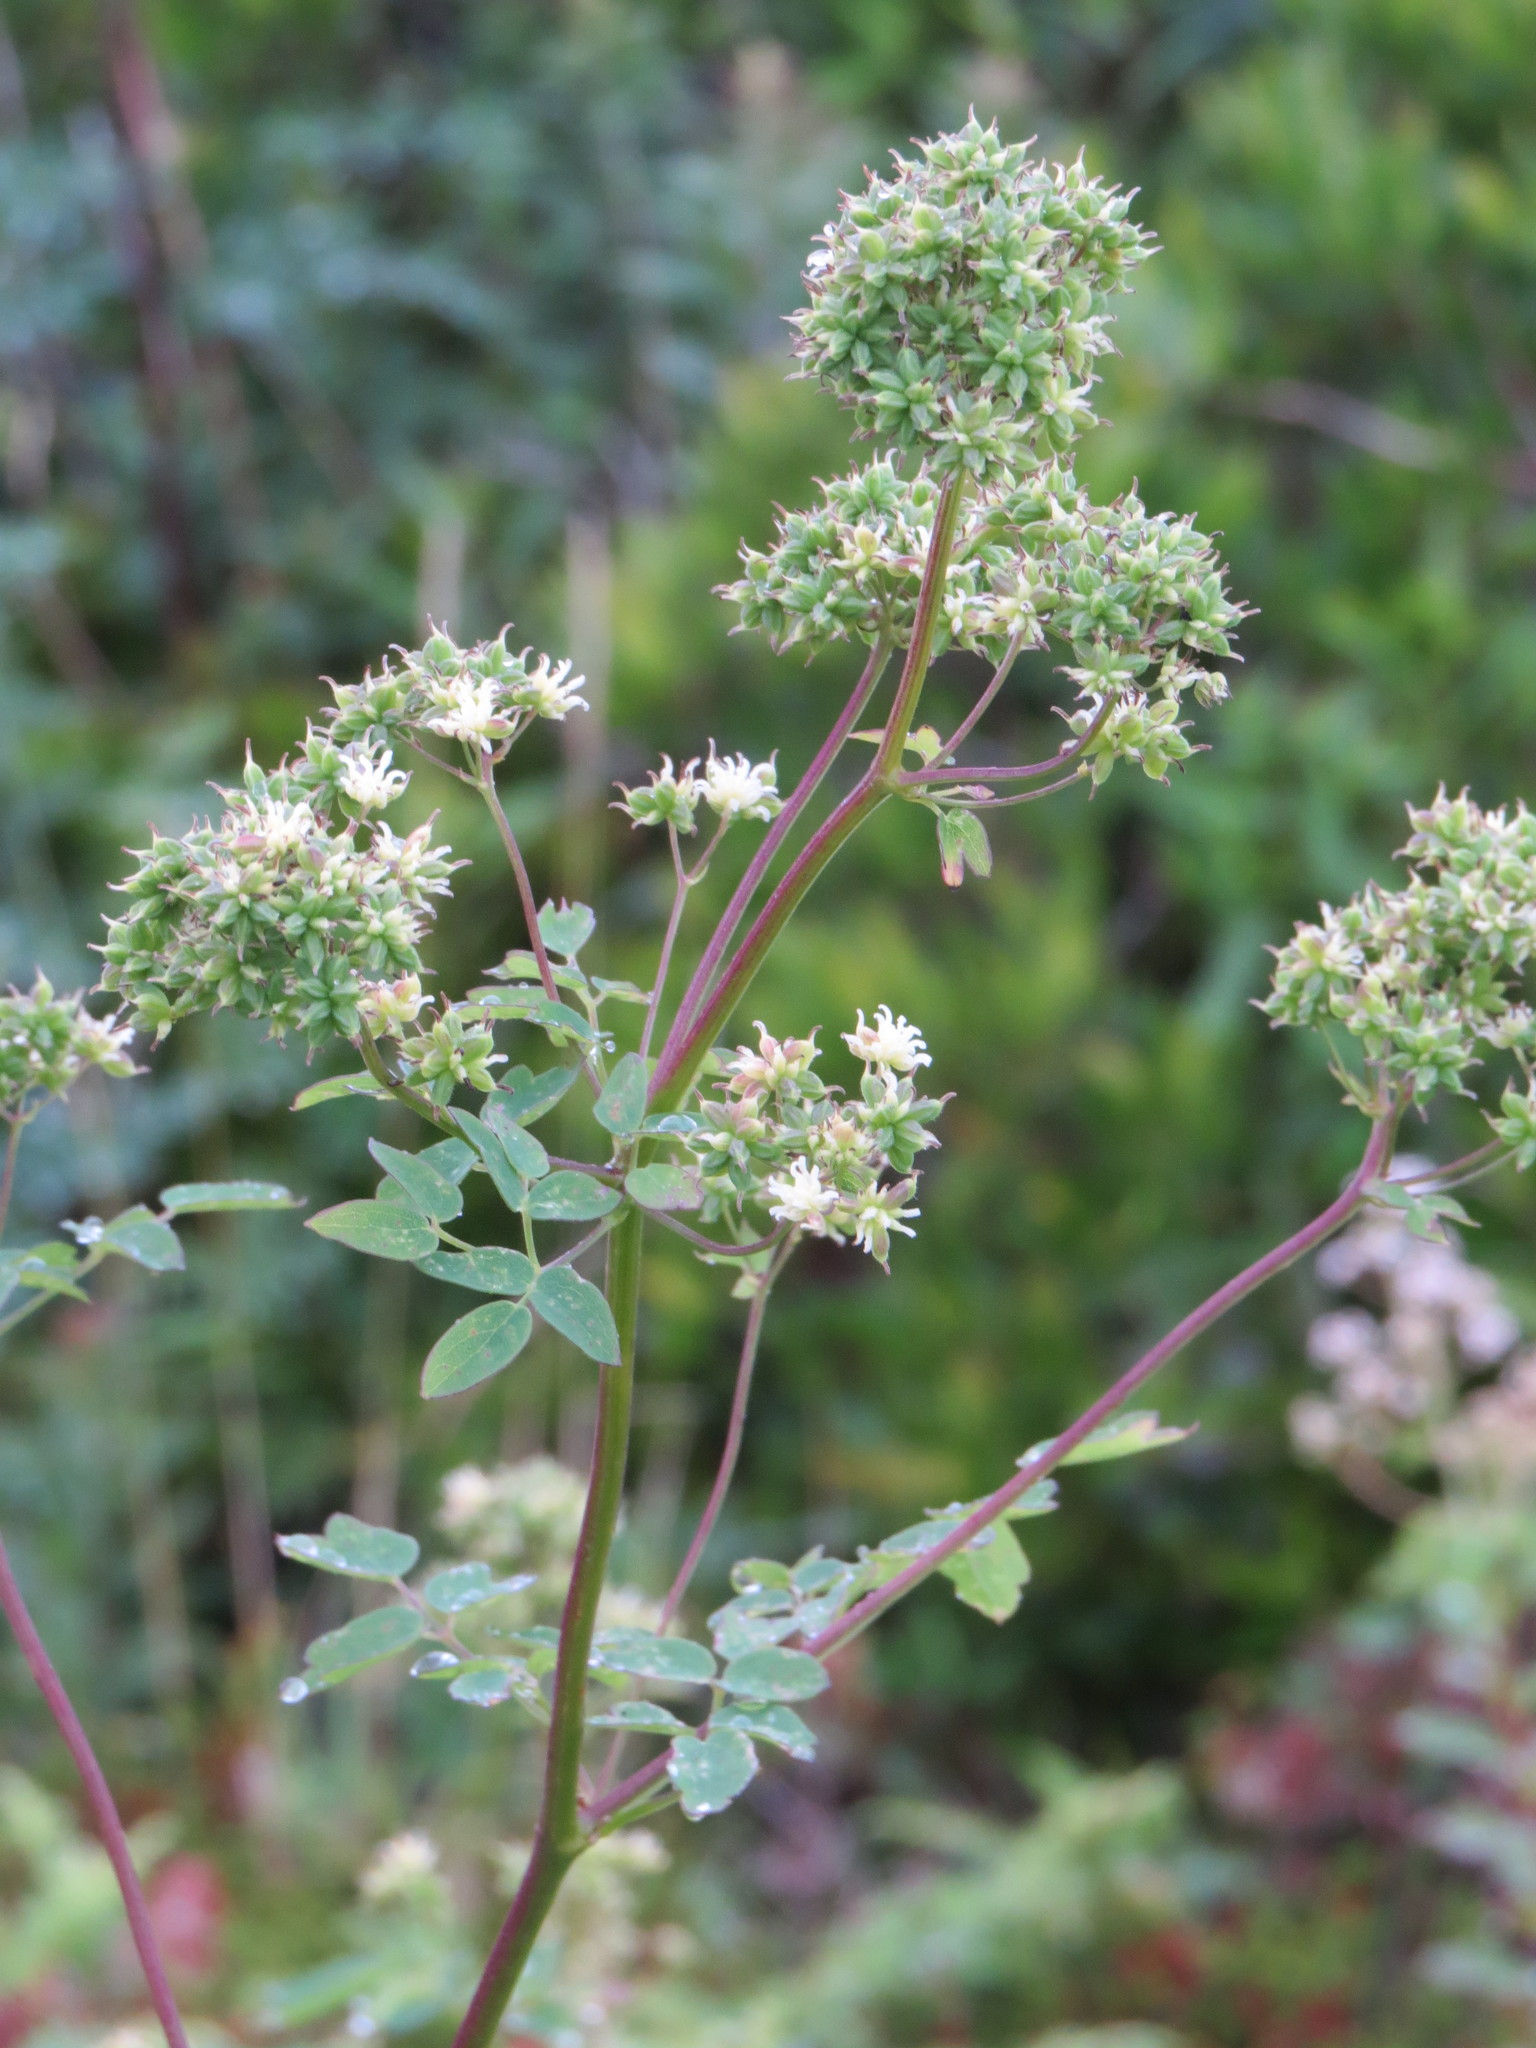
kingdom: Plantae
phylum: Tracheophyta
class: Magnoliopsida
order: Ranunculales
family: Ranunculaceae
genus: Thalictrum
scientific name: Thalictrum pubescens
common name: King-of-the-meadow
